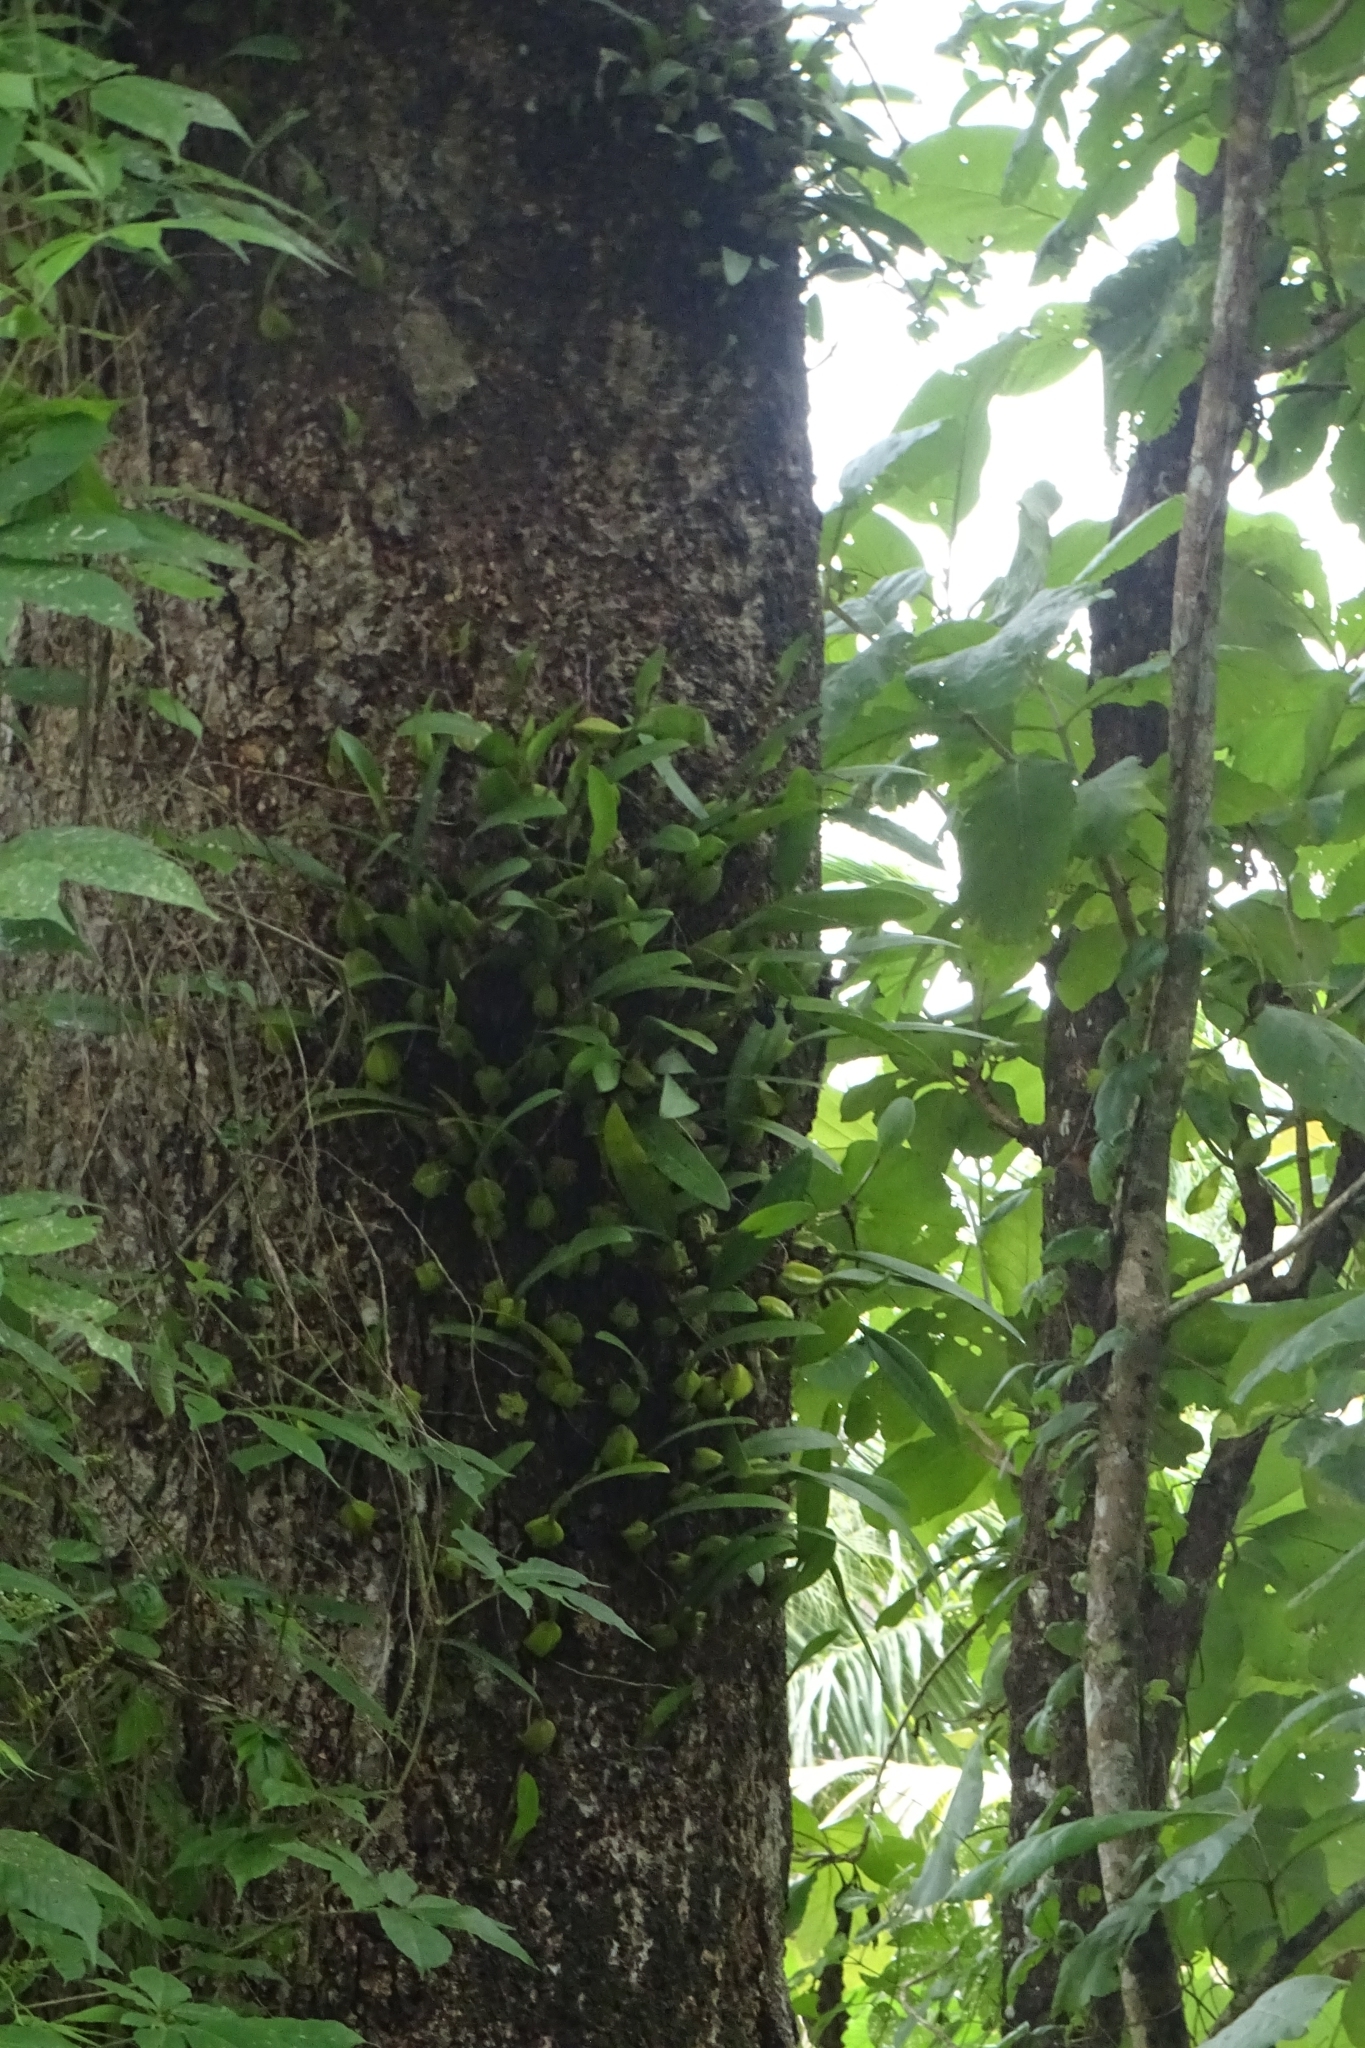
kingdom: Plantae
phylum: Tracheophyta
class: Liliopsida
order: Asparagales
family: Orchidaceae
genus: Bulbophyllum
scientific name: Bulbophyllum sterile
